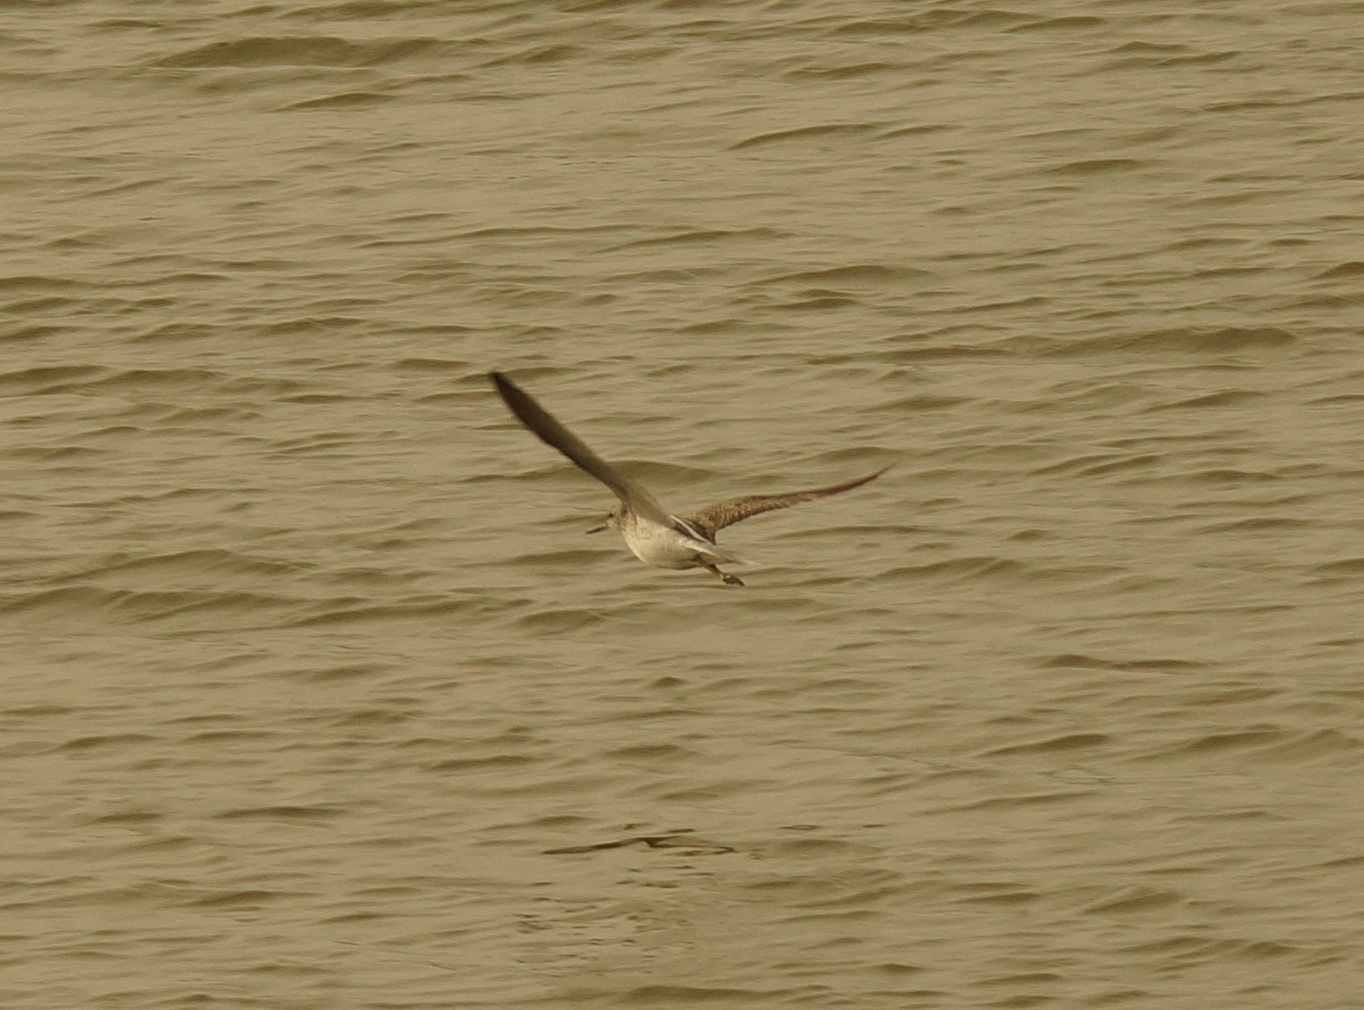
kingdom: Animalia
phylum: Chordata
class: Aves
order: Charadriiformes
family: Scolopacidae
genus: Tringa
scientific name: Tringa nebularia
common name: Common greenshank
